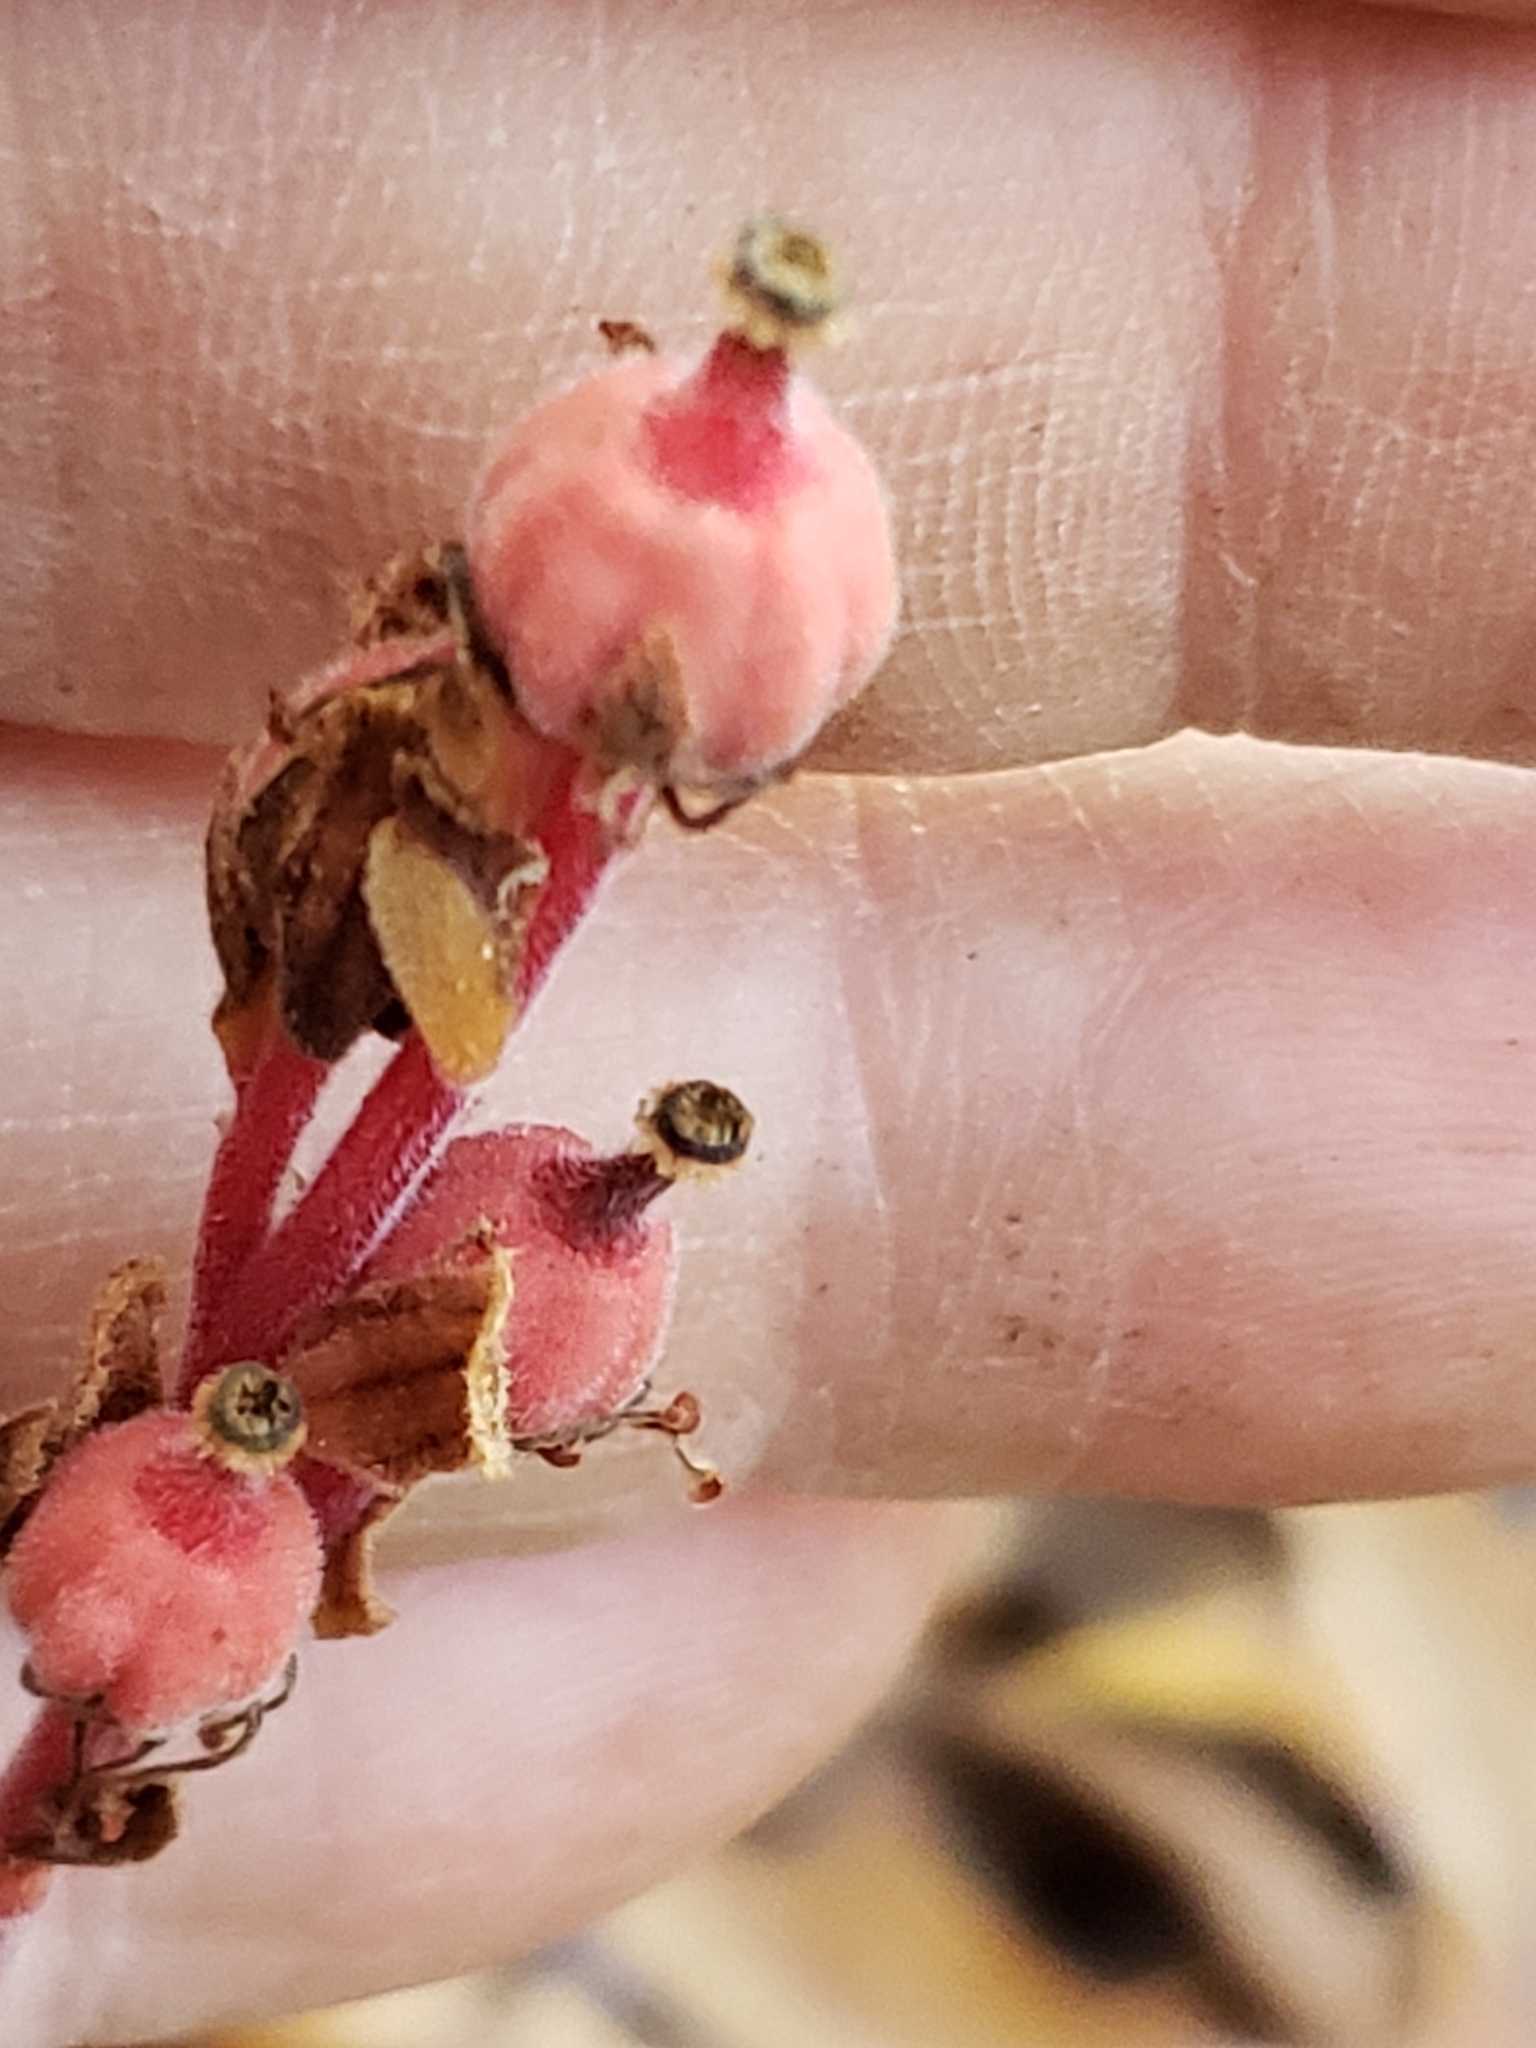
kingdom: Plantae
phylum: Tracheophyta
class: Magnoliopsida
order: Ericales
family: Ericaceae
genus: Hypopitys
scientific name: Hypopitys monotropa
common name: Yellow bird's-nest
